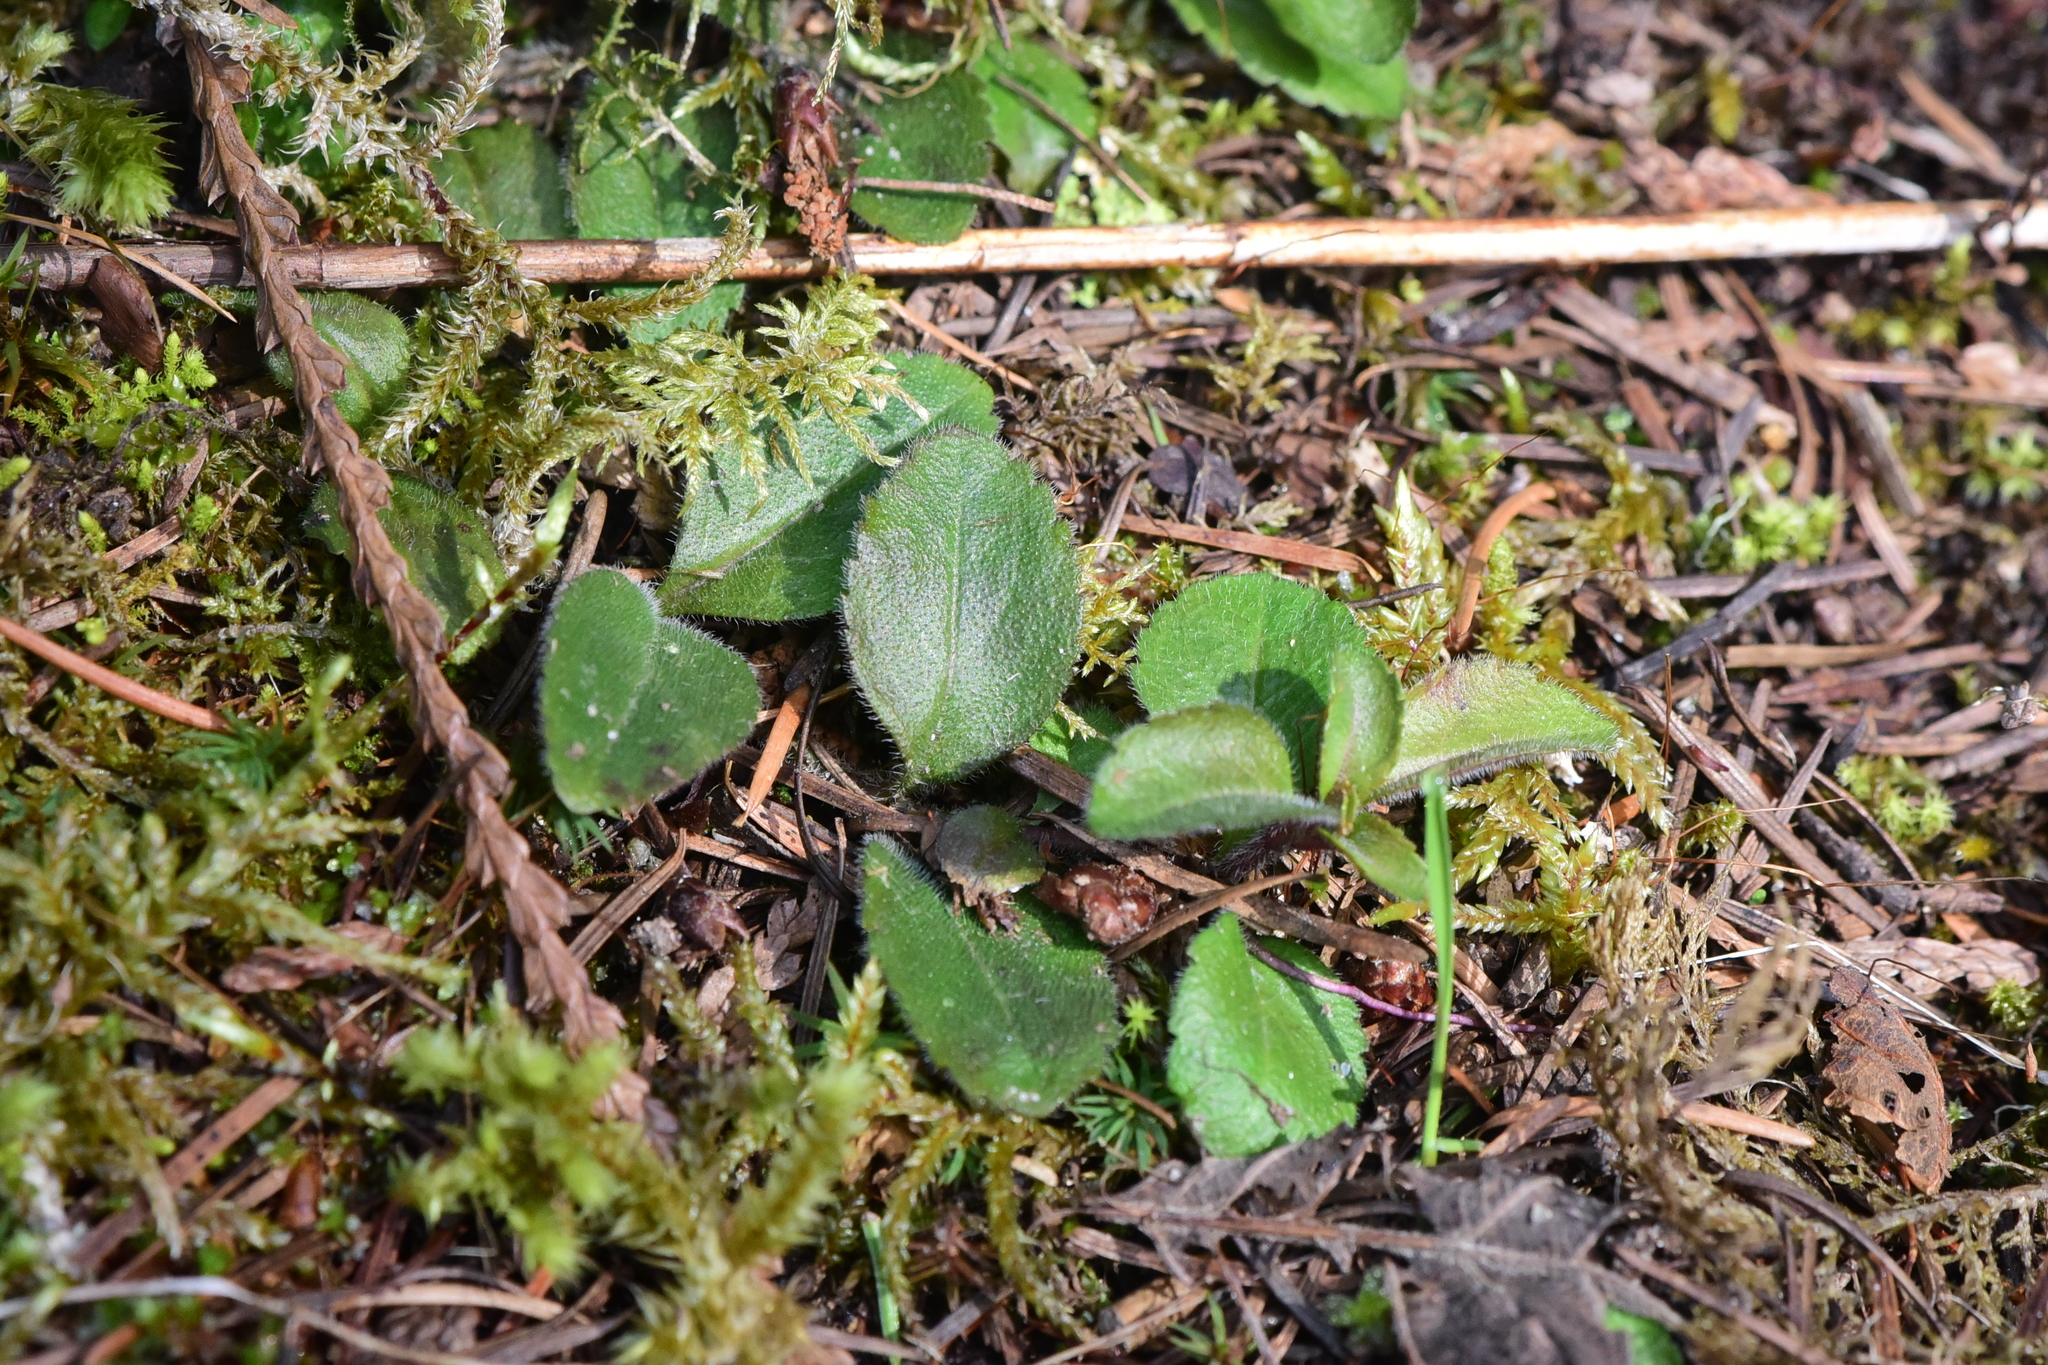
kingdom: Plantae
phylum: Tracheophyta
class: Magnoliopsida
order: Lamiales
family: Plantaginaceae
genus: Veronica
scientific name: Veronica officinalis
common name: Common speedwell
